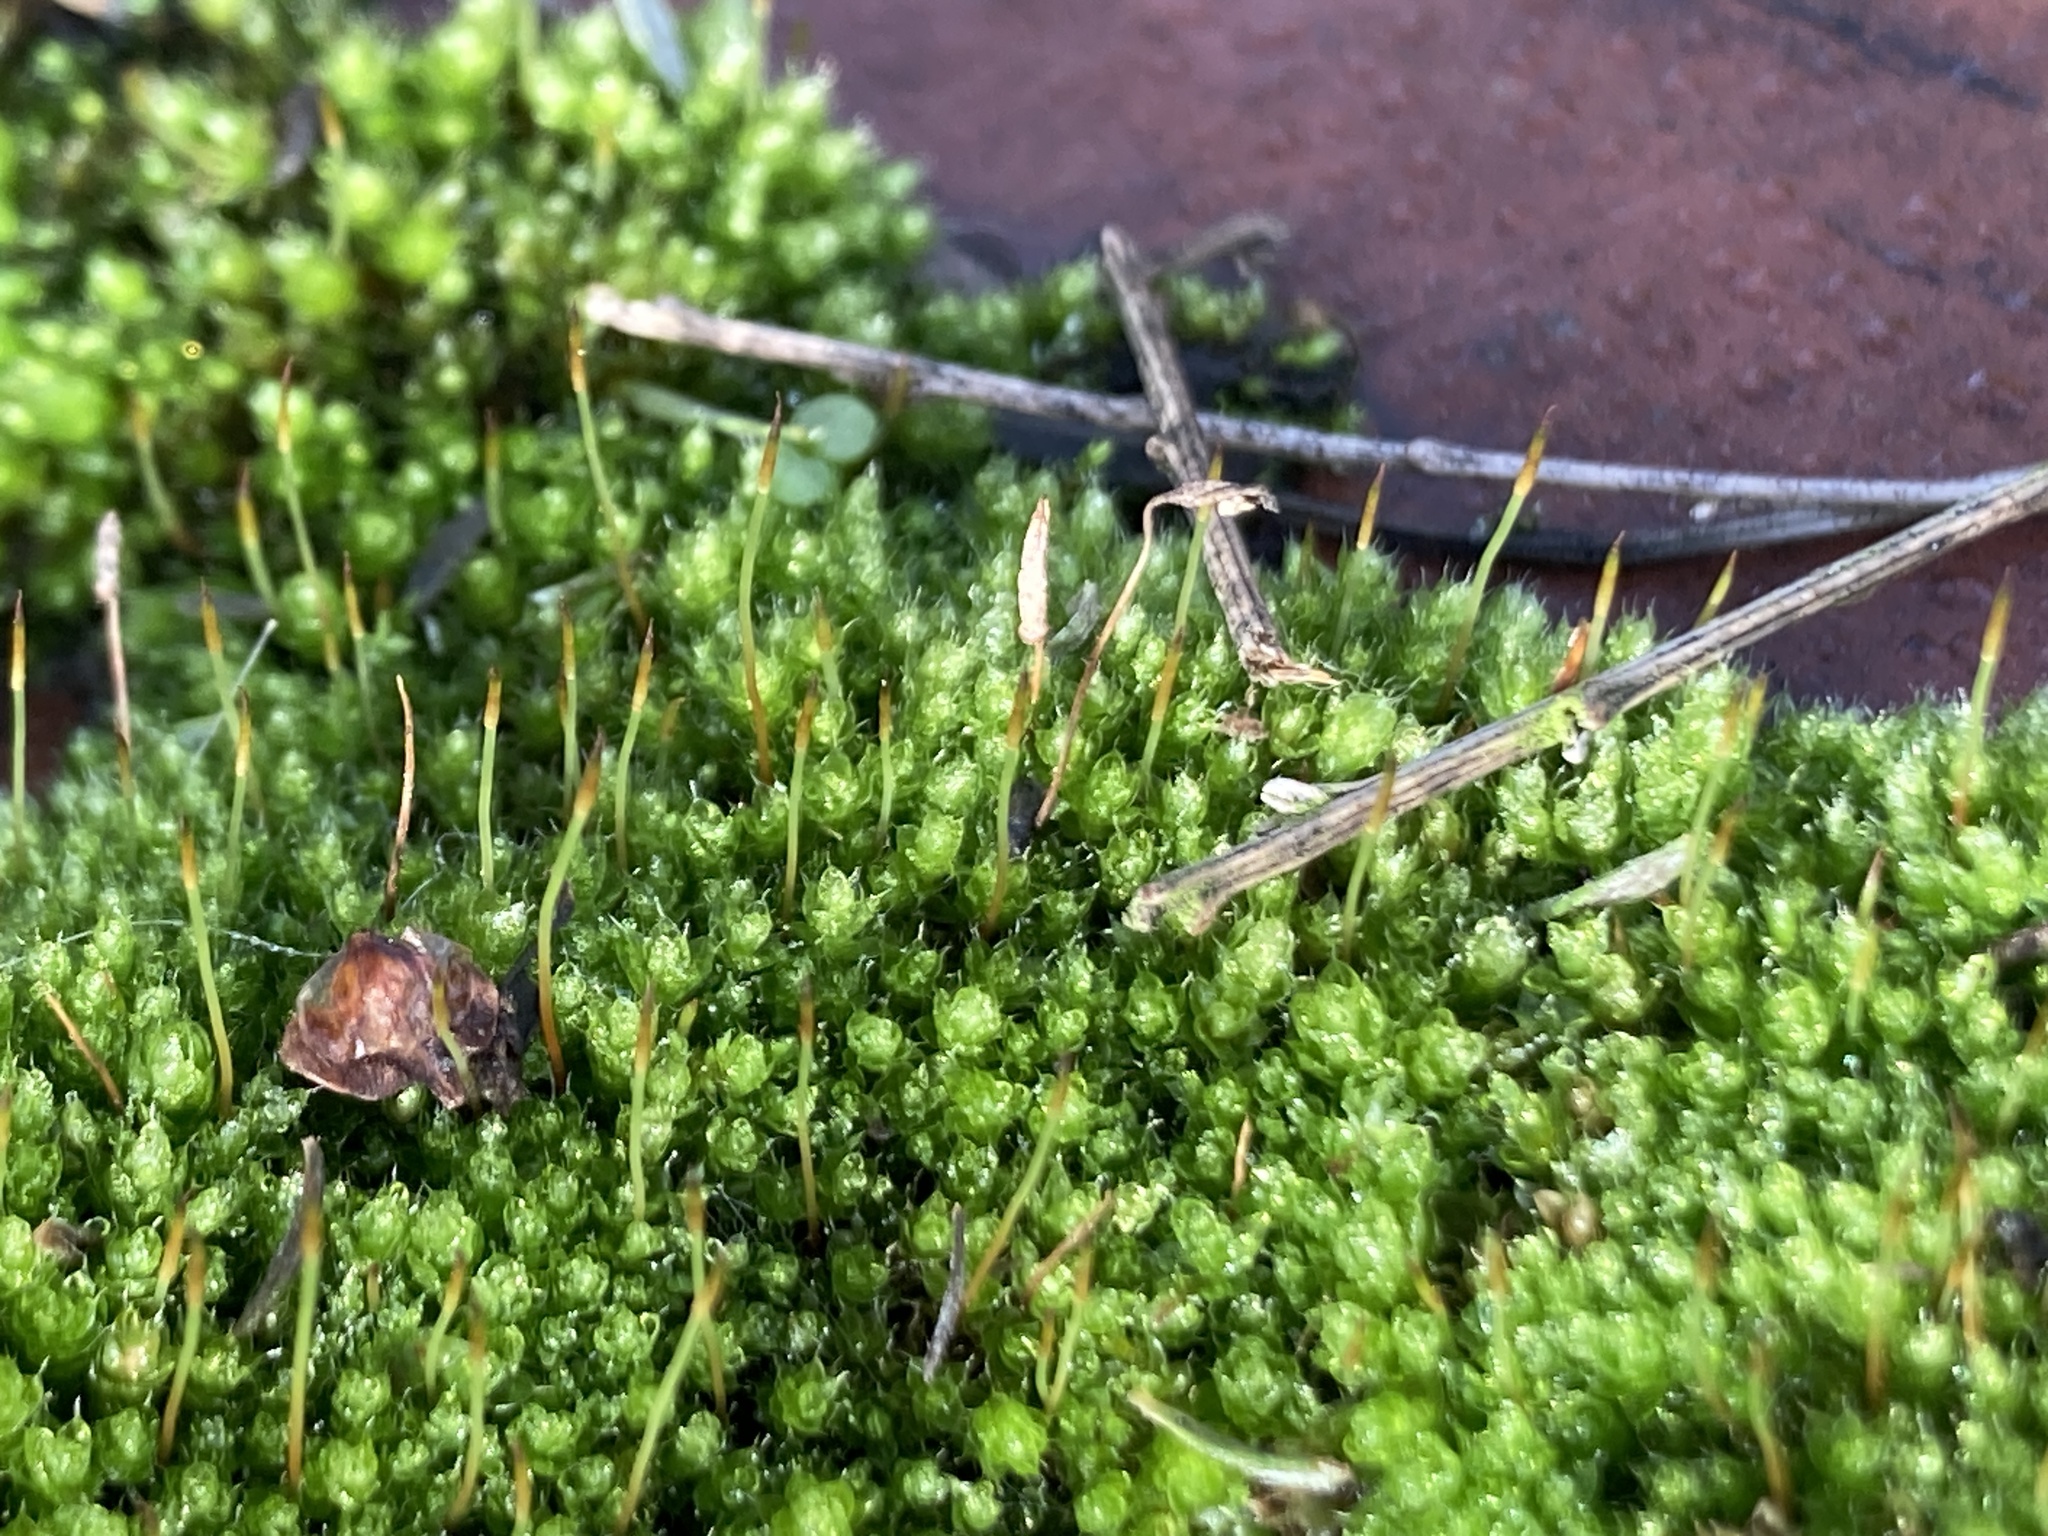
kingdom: Plantae
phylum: Bryophyta
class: Bryopsida
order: Bryales
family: Bryaceae
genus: Rosulabryum
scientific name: Rosulabryum capillare
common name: Capillary thread-moss
